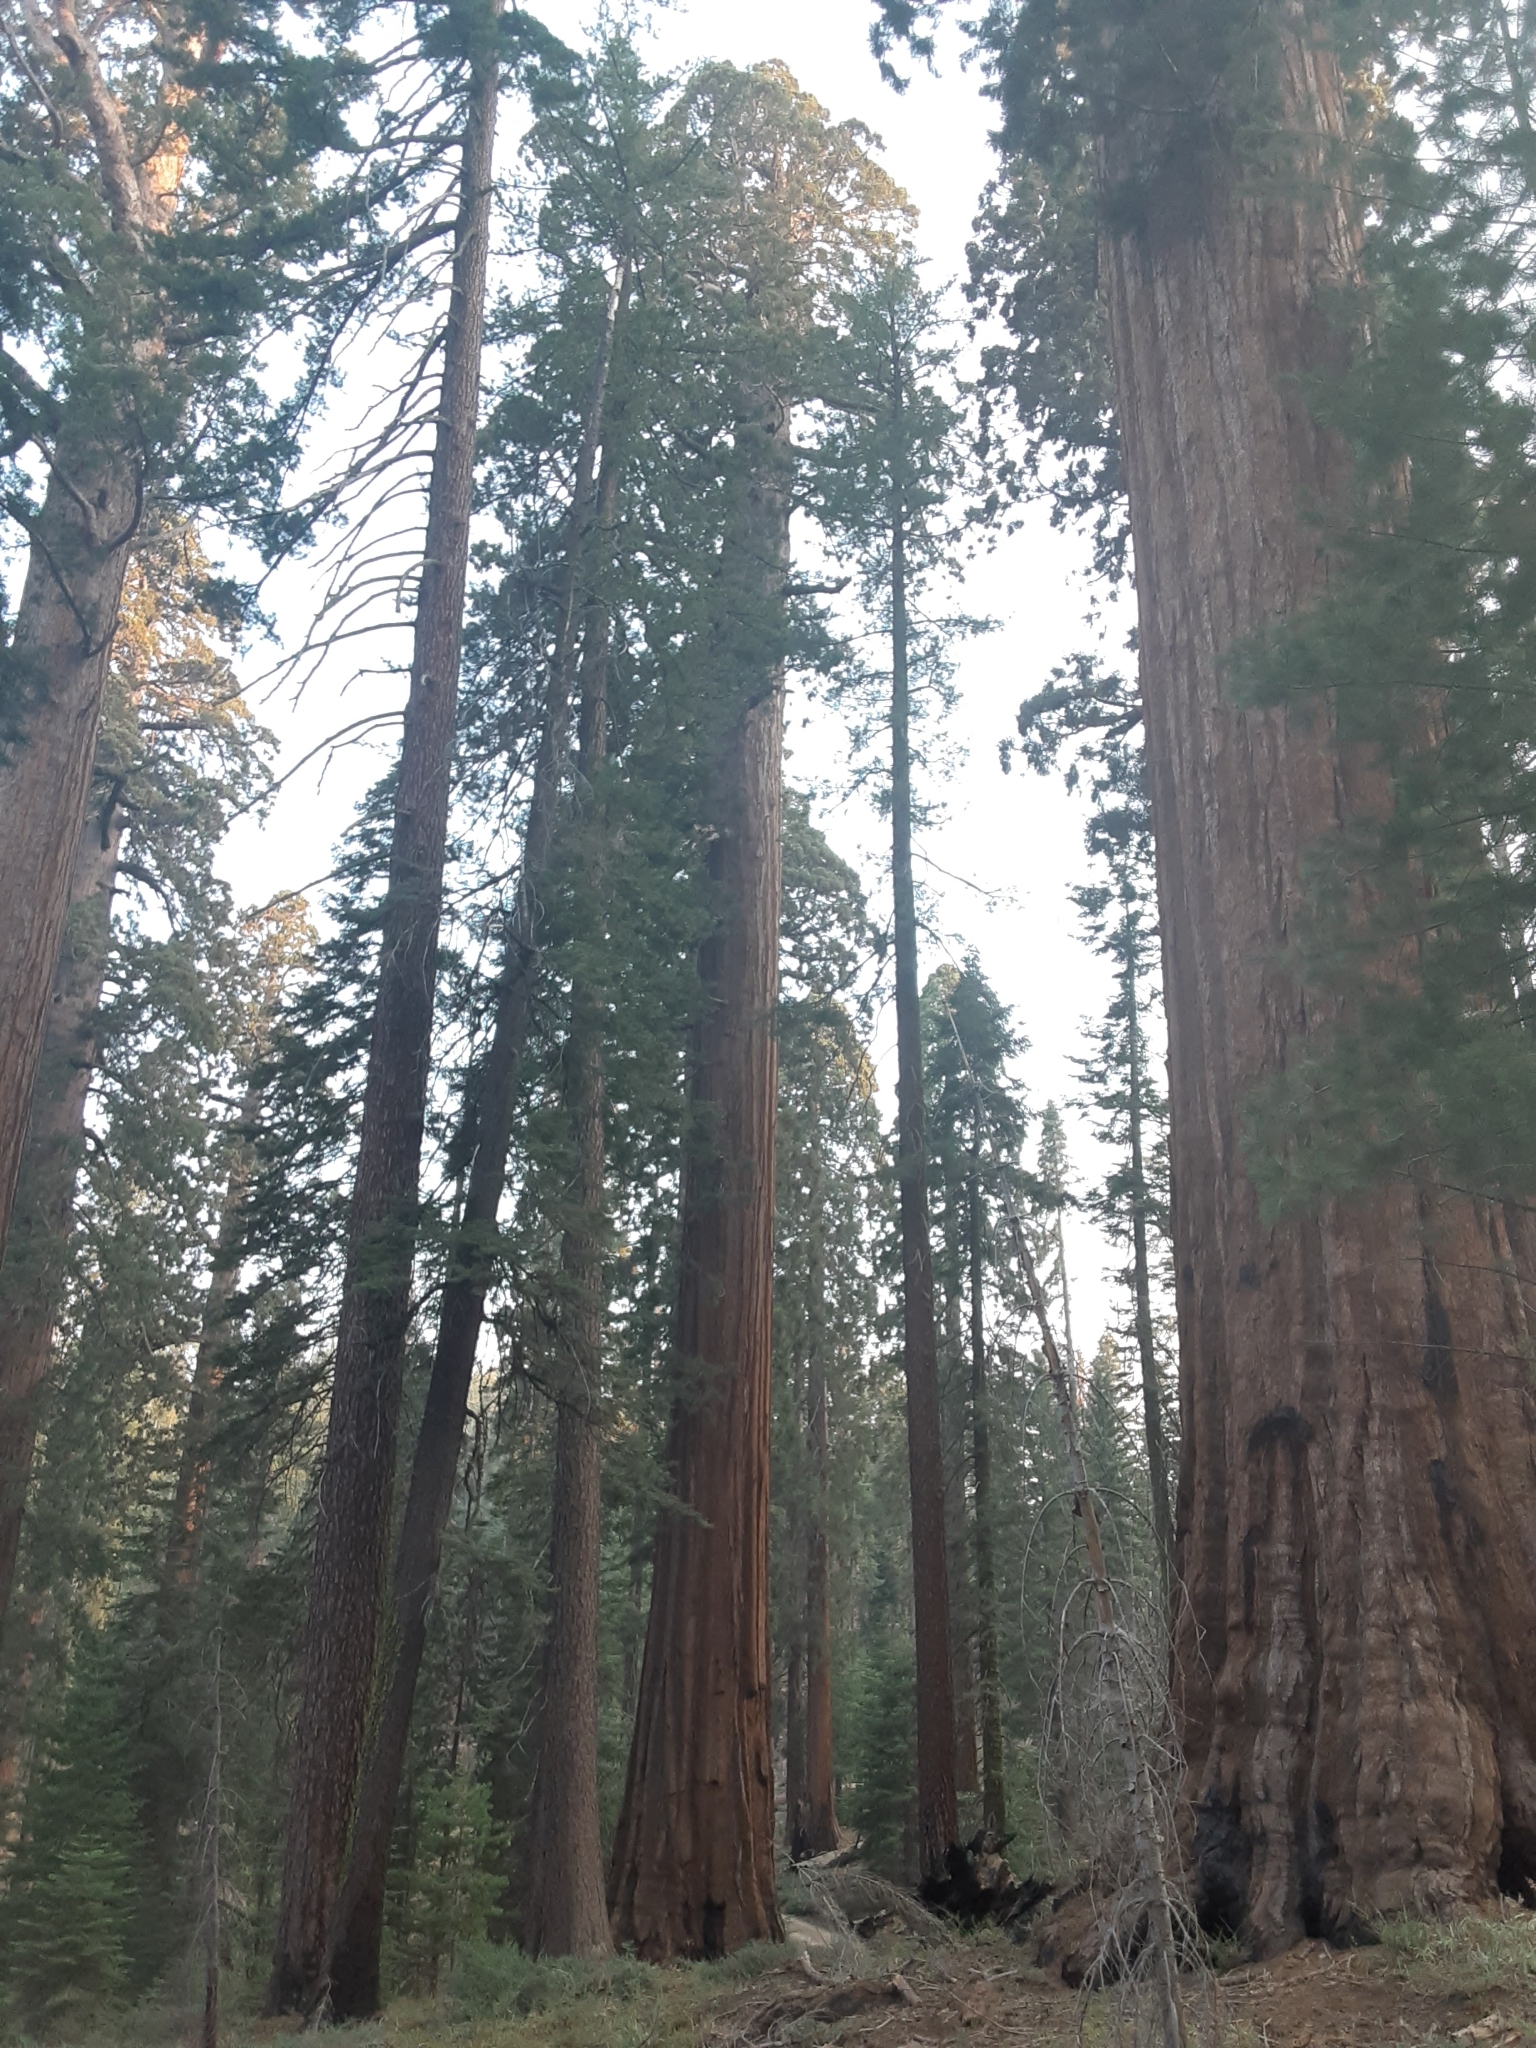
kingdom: Plantae
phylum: Tracheophyta
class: Pinopsida
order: Pinales
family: Cupressaceae
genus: Sequoiadendron
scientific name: Sequoiadendron giganteum
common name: Wellingtonia
